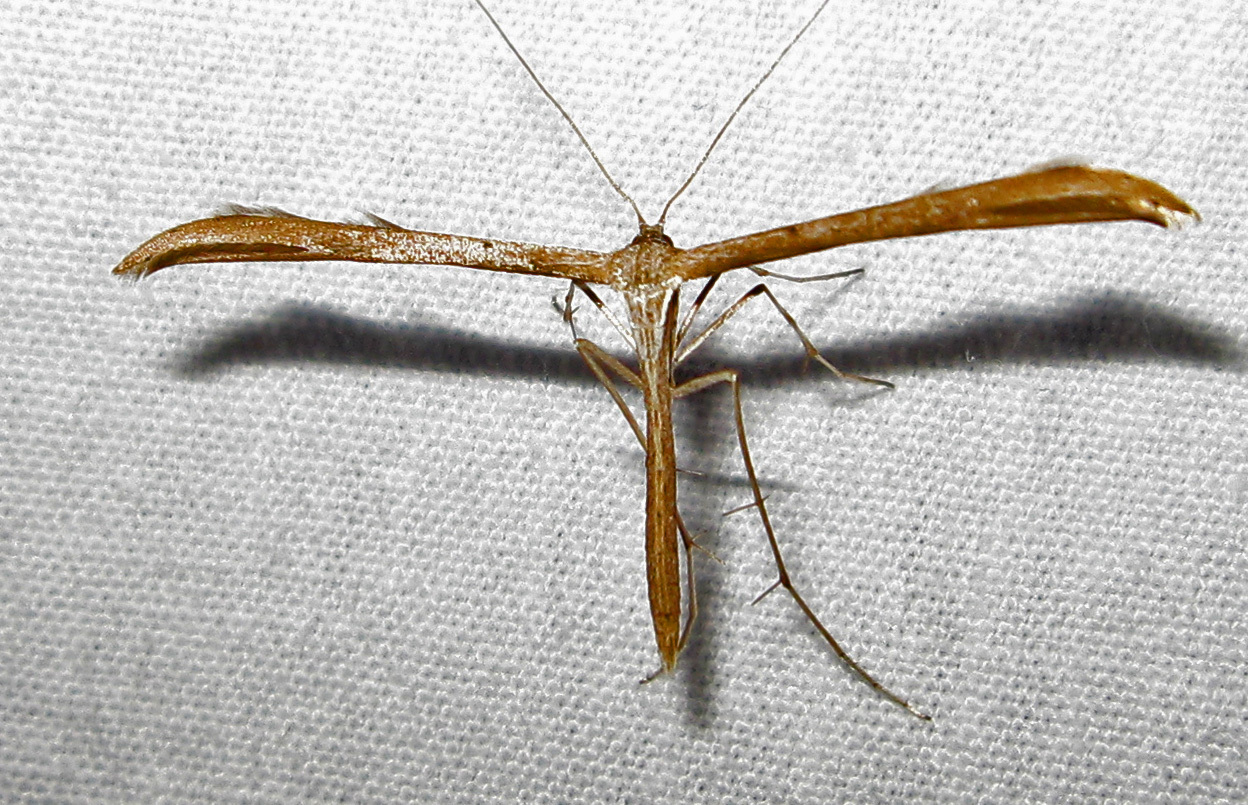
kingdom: Animalia
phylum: Arthropoda
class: Insecta
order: Lepidoptera
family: Pterophoridae
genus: Emmelina
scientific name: Emmelina monodactyla
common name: Common plume
